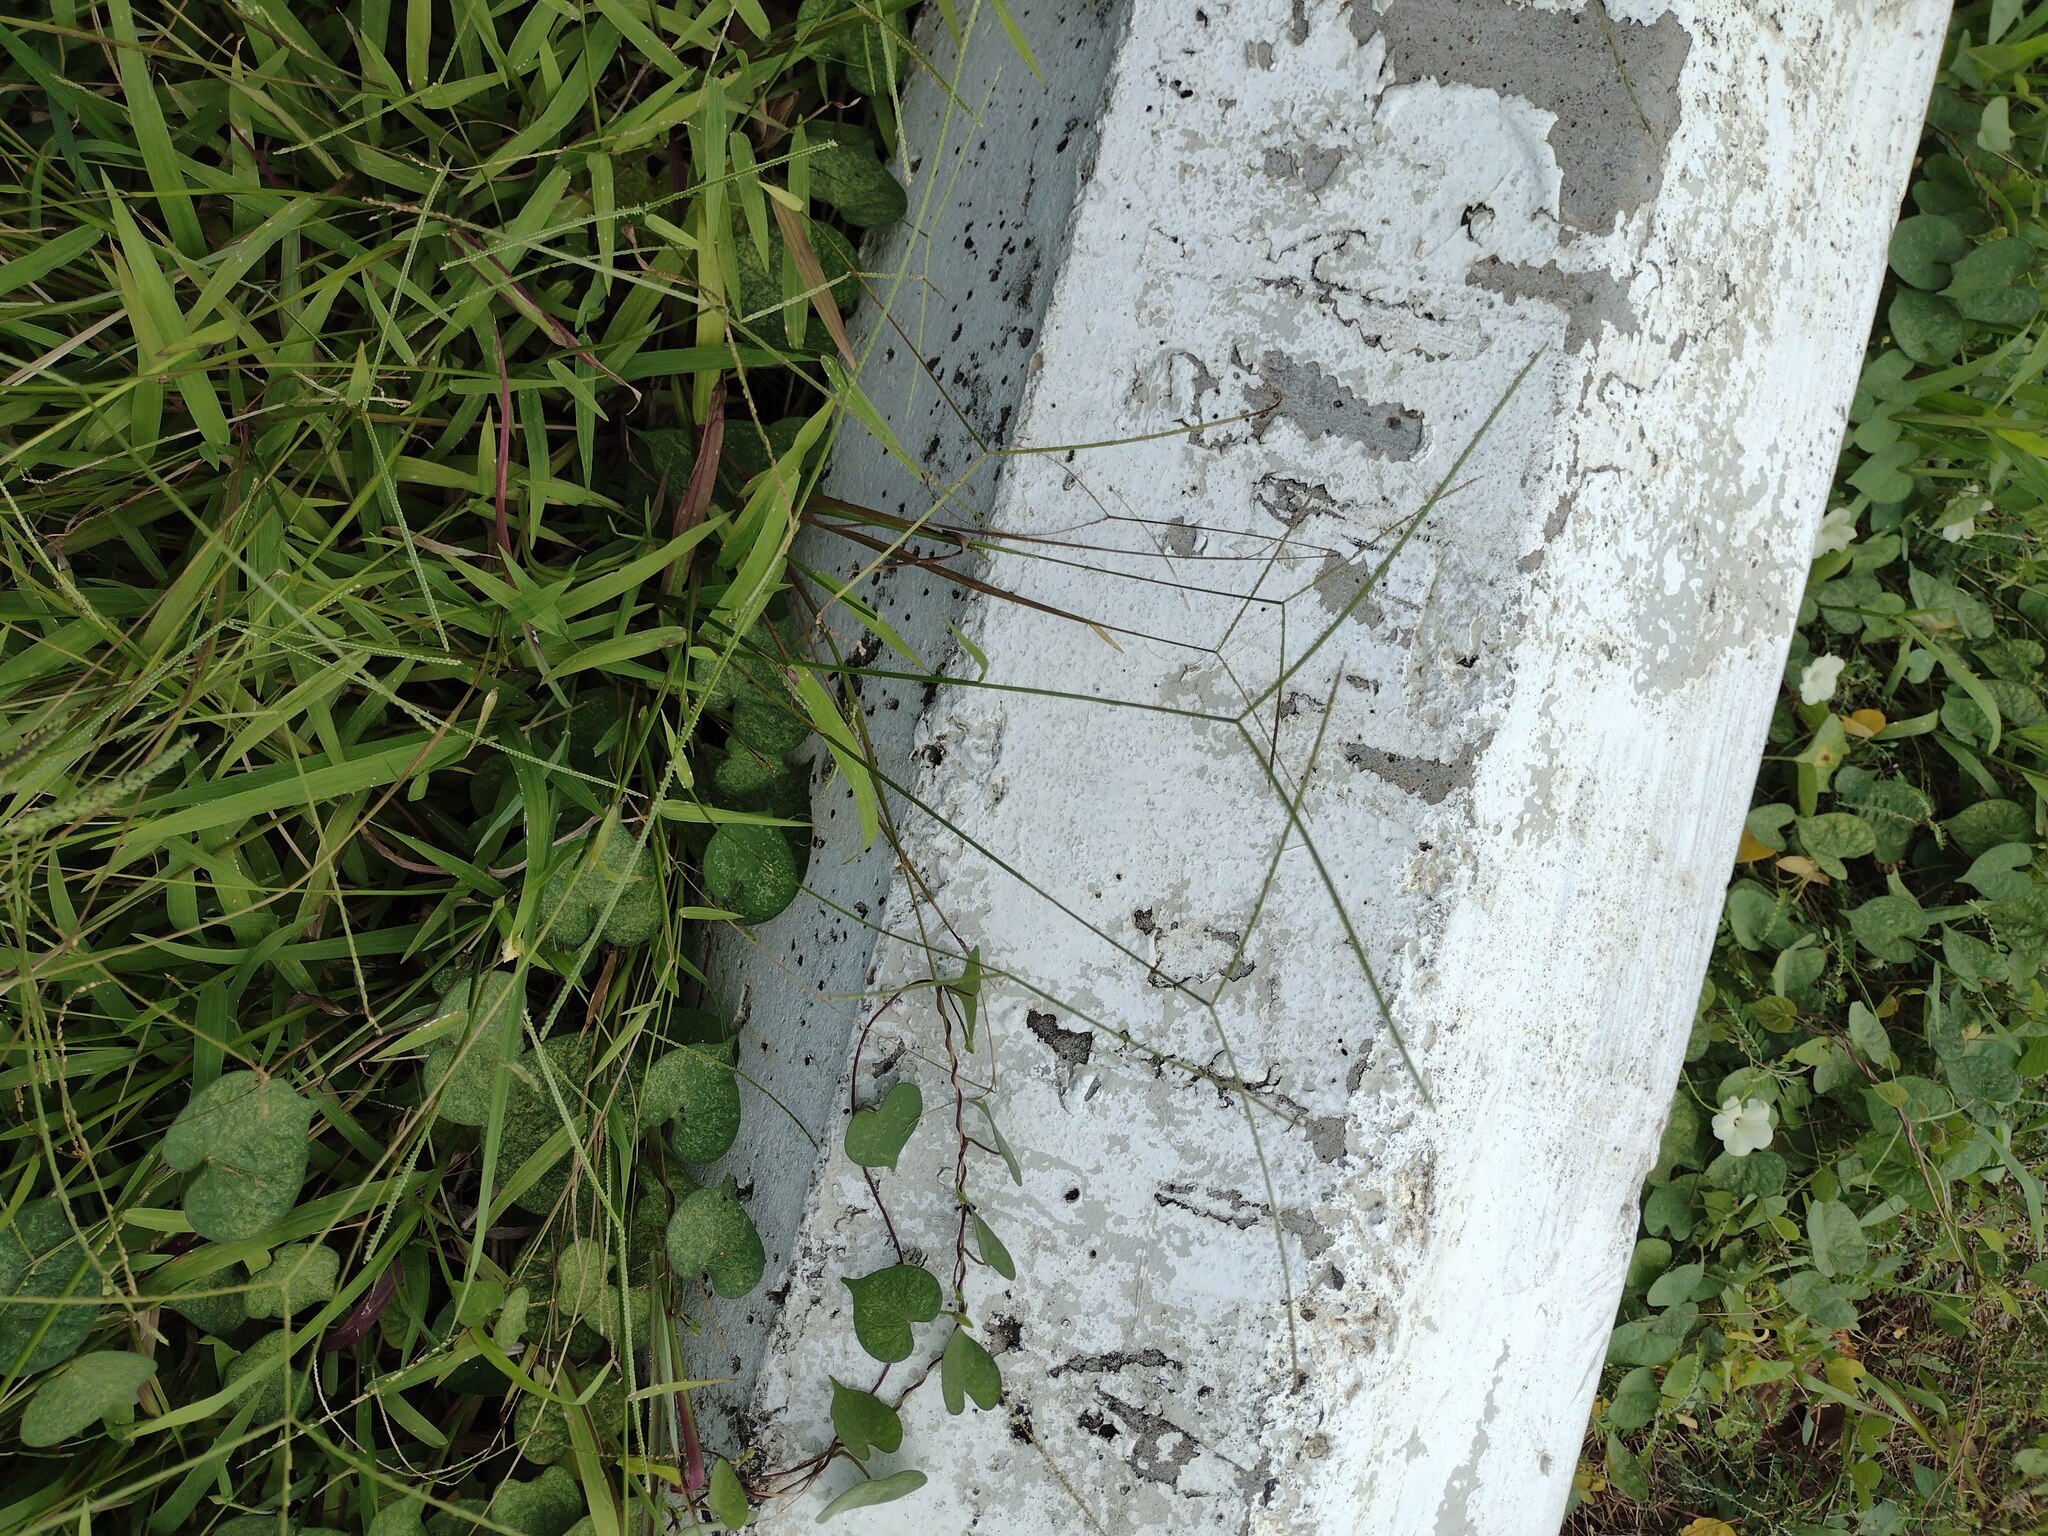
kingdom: Plantae
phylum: Tracheophyta
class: Liliopsida
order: Poales
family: Poaceae
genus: Paspalum
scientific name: Paspalum conjugatum
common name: Hilograss
